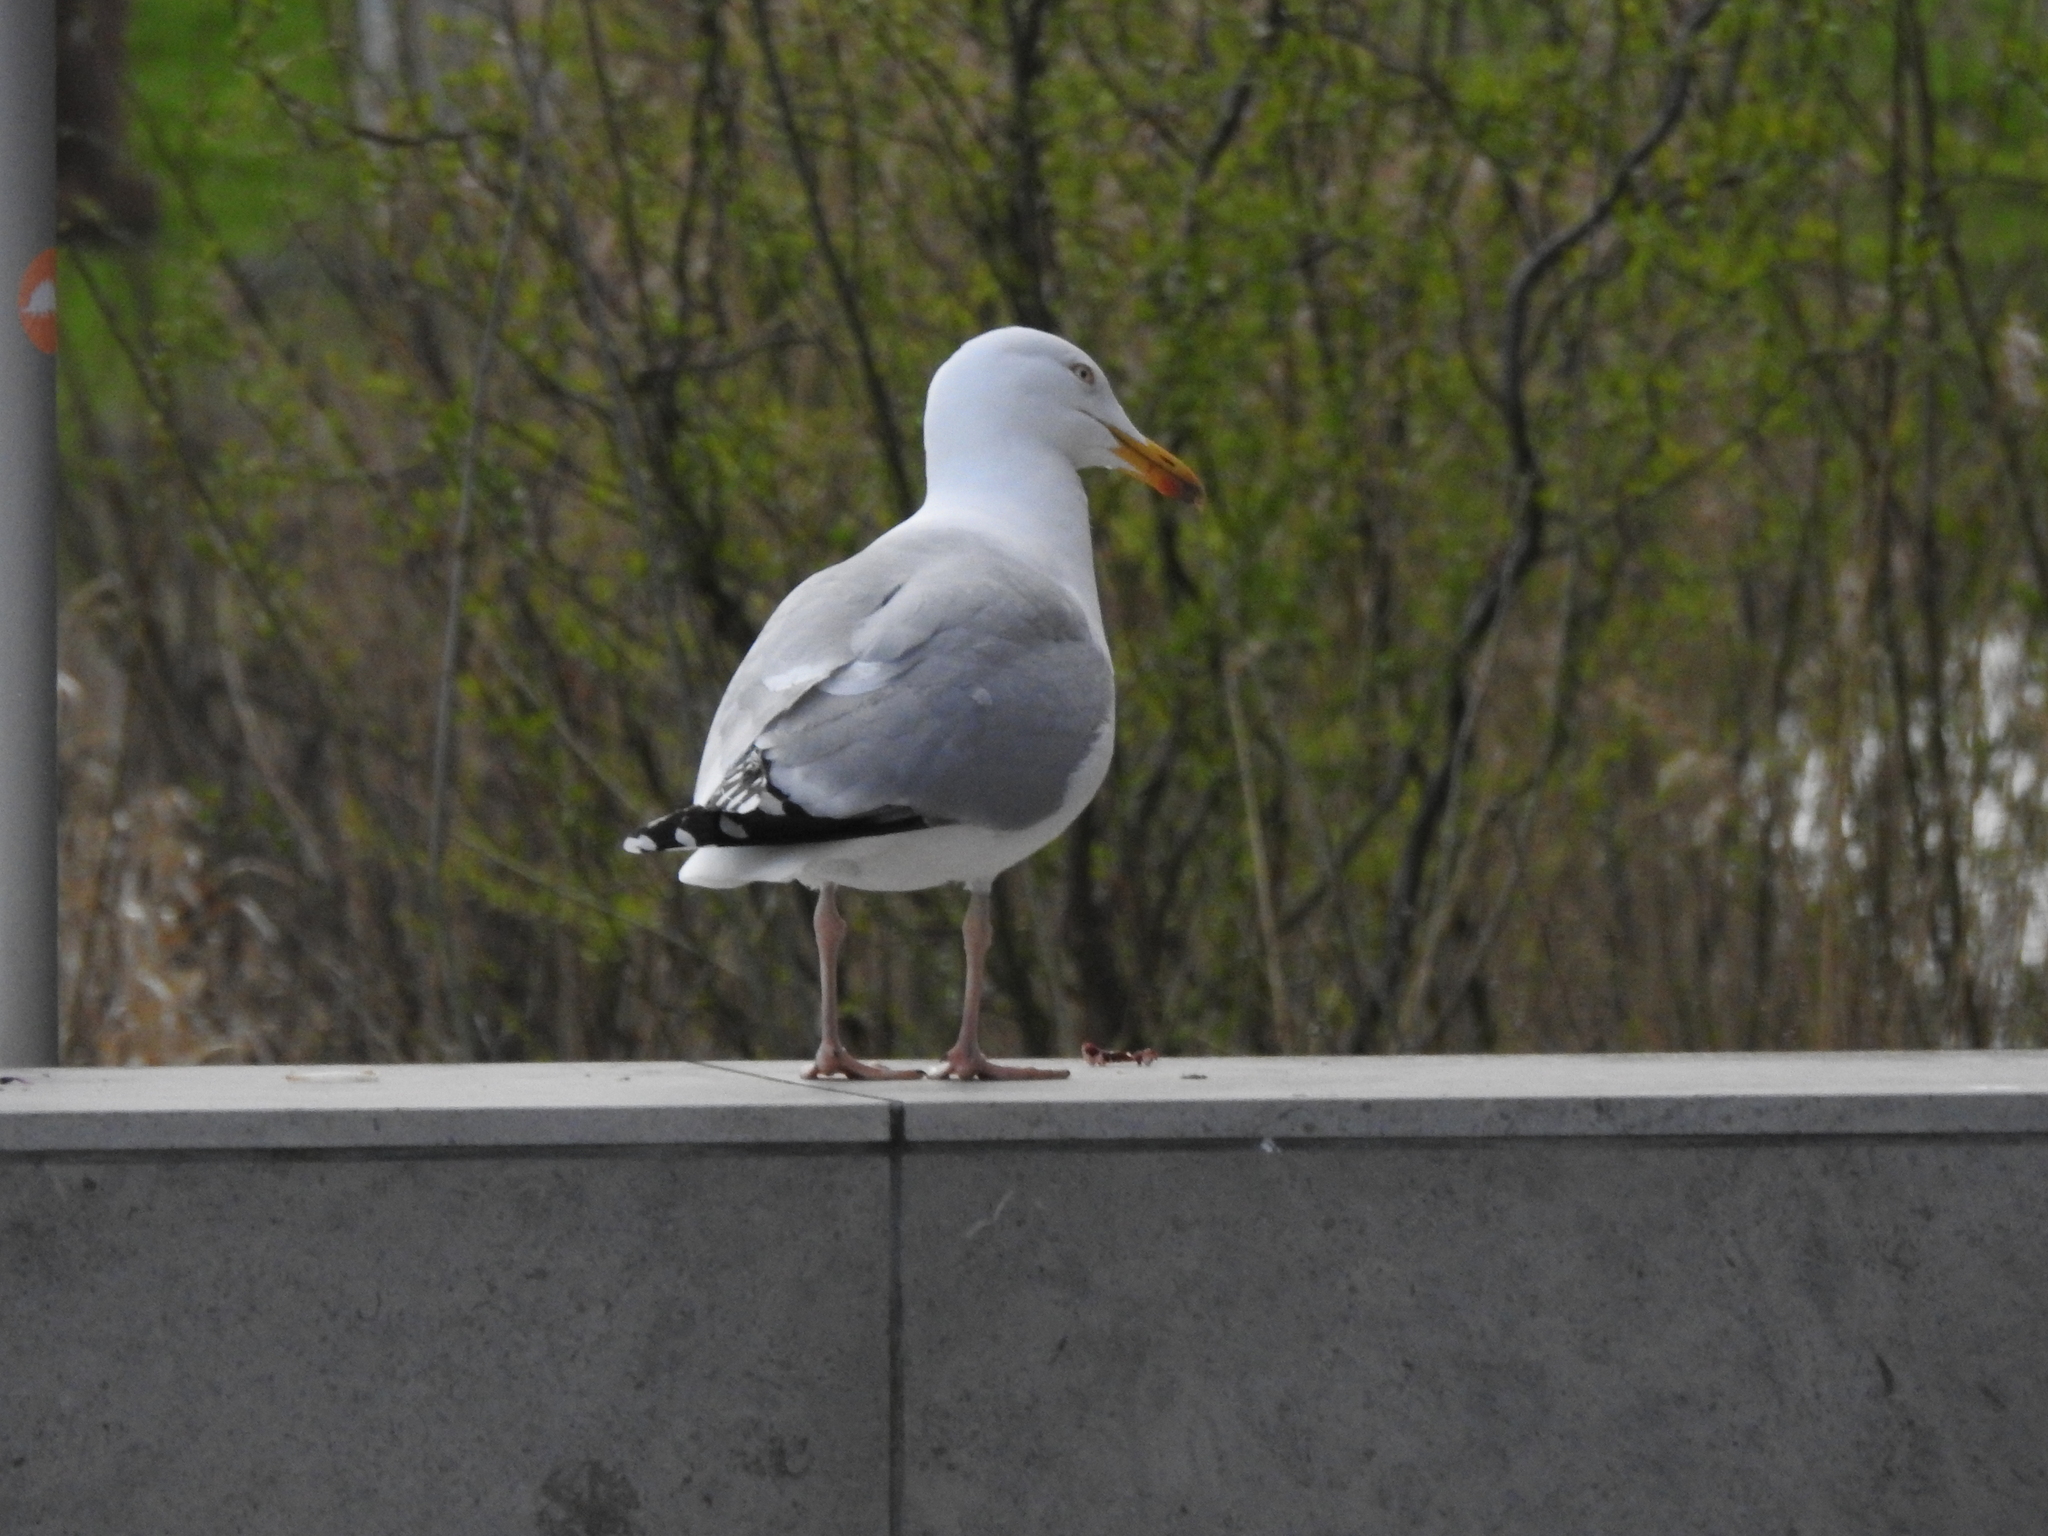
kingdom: Animalia
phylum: Chordata
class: Aves
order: Charadriiformes
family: Laridae
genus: Larus
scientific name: Larus argentatus
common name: Herring gull
